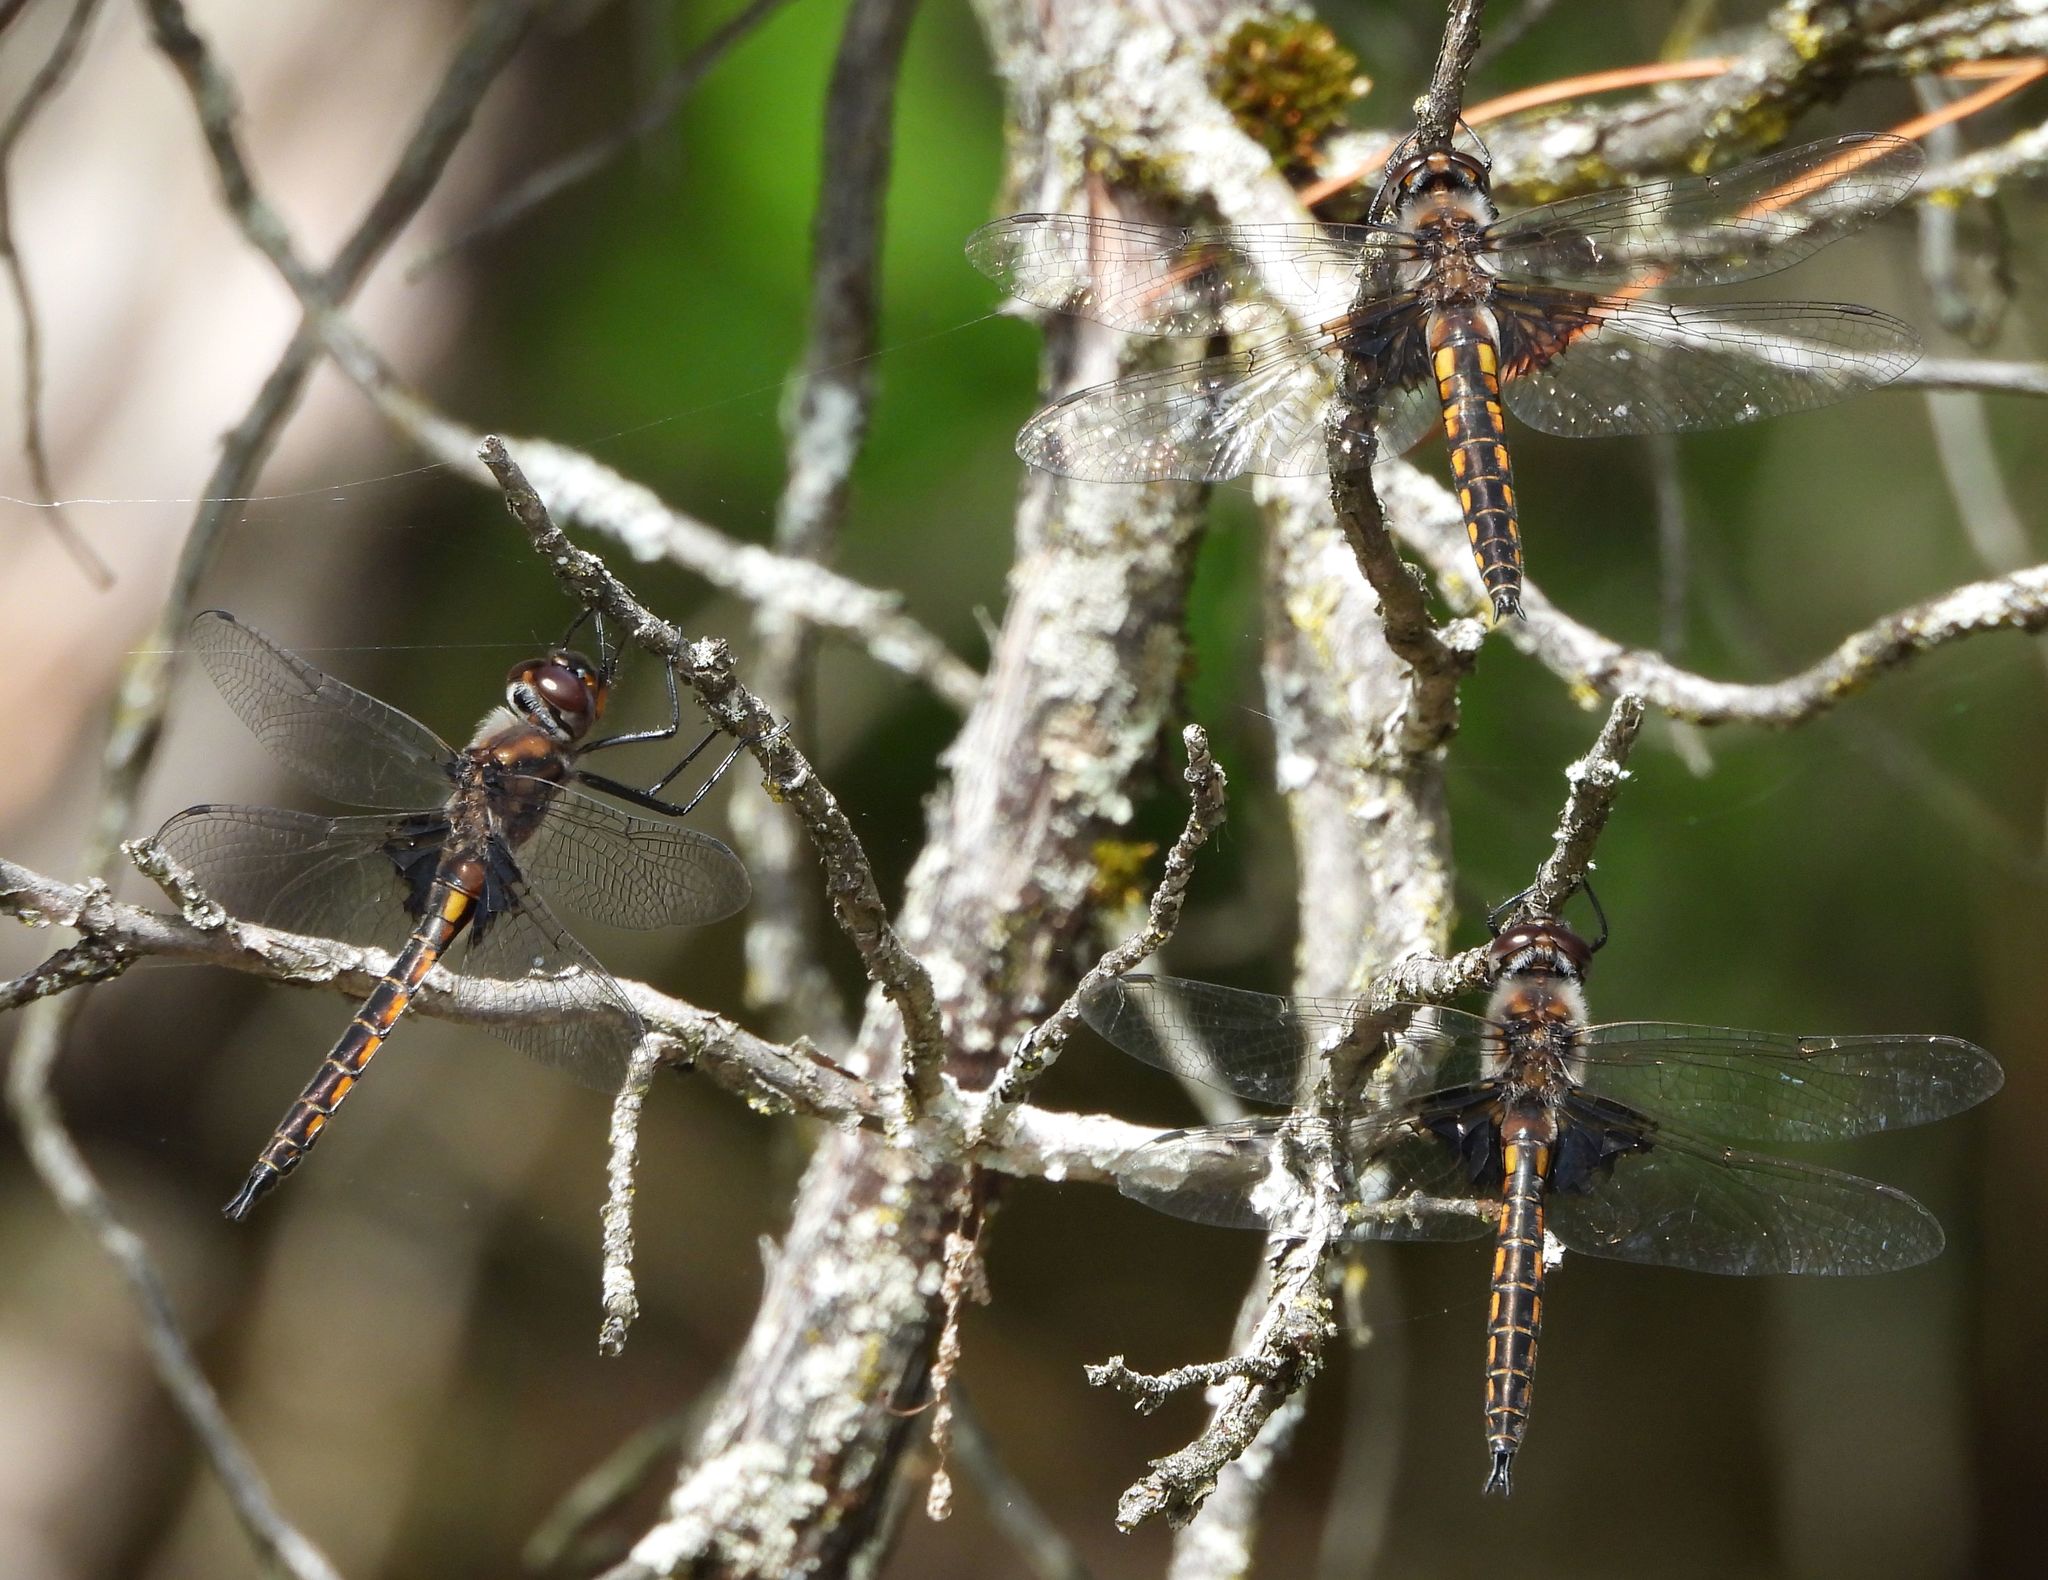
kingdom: Animalia
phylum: Arthropoda
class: Insecta
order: Odonata
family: Corduliidae
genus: Epitheca
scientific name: Epitheca cynosura
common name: Common baskettail
